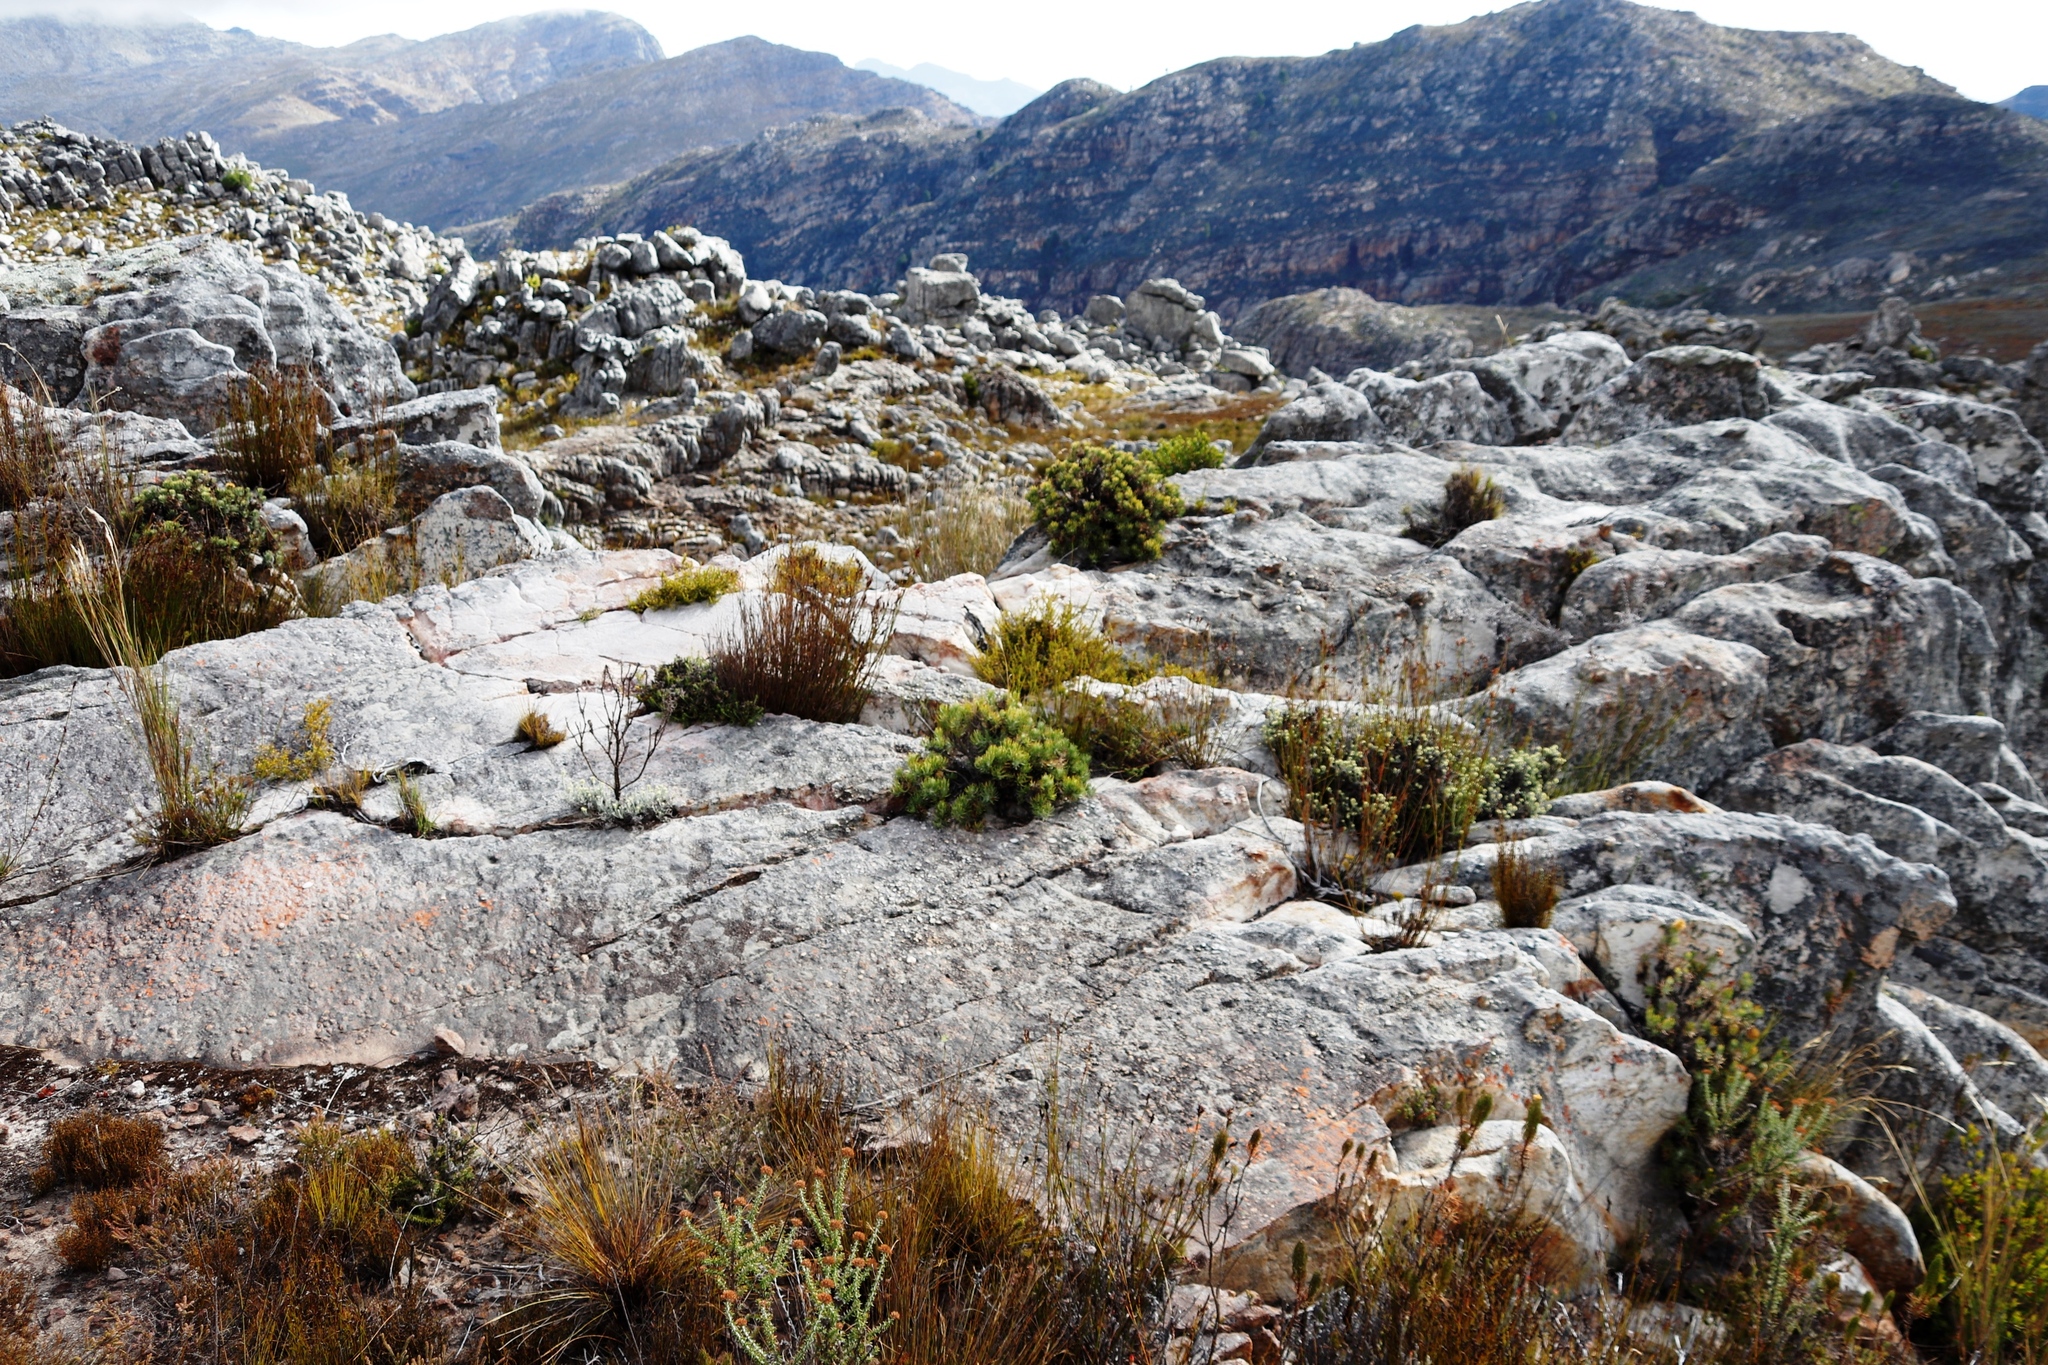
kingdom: Plantae
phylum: Tracheophyta
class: Magnoliopsida
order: Asterales
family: Asteraceae
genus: Heterolepis
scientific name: Heterolepis aliena
